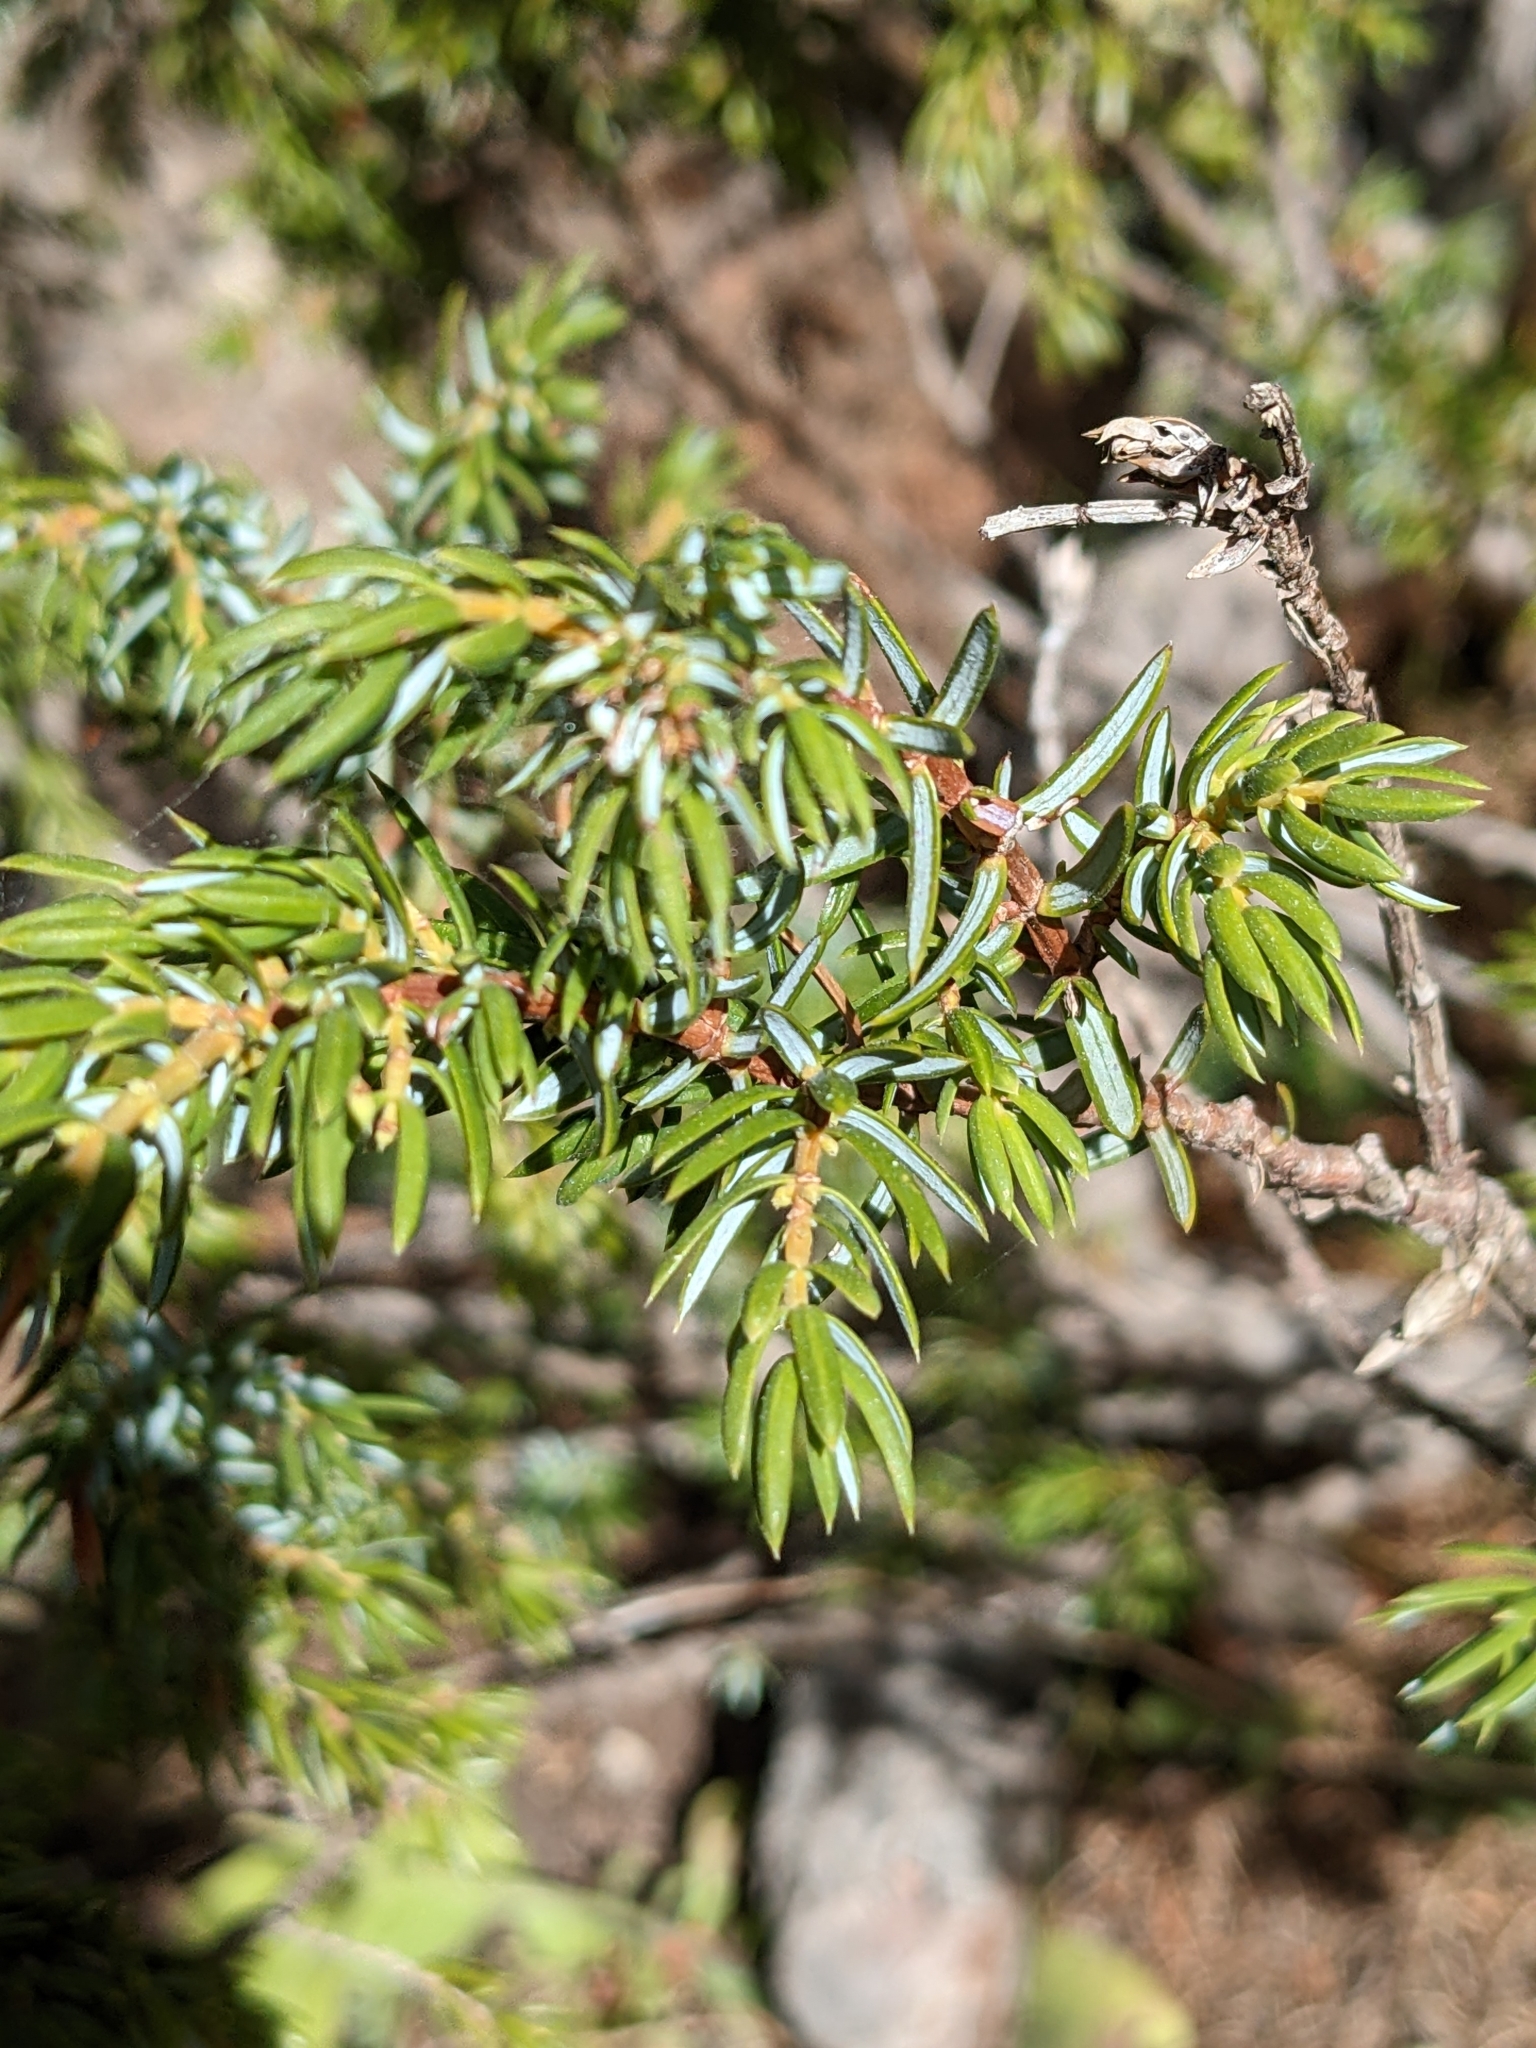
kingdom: Plantae
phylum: Tracheophyta
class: Pinopsida
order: Pinales
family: Cupressaceae
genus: Juniperus
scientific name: Juniperus communis
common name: Common juniper
